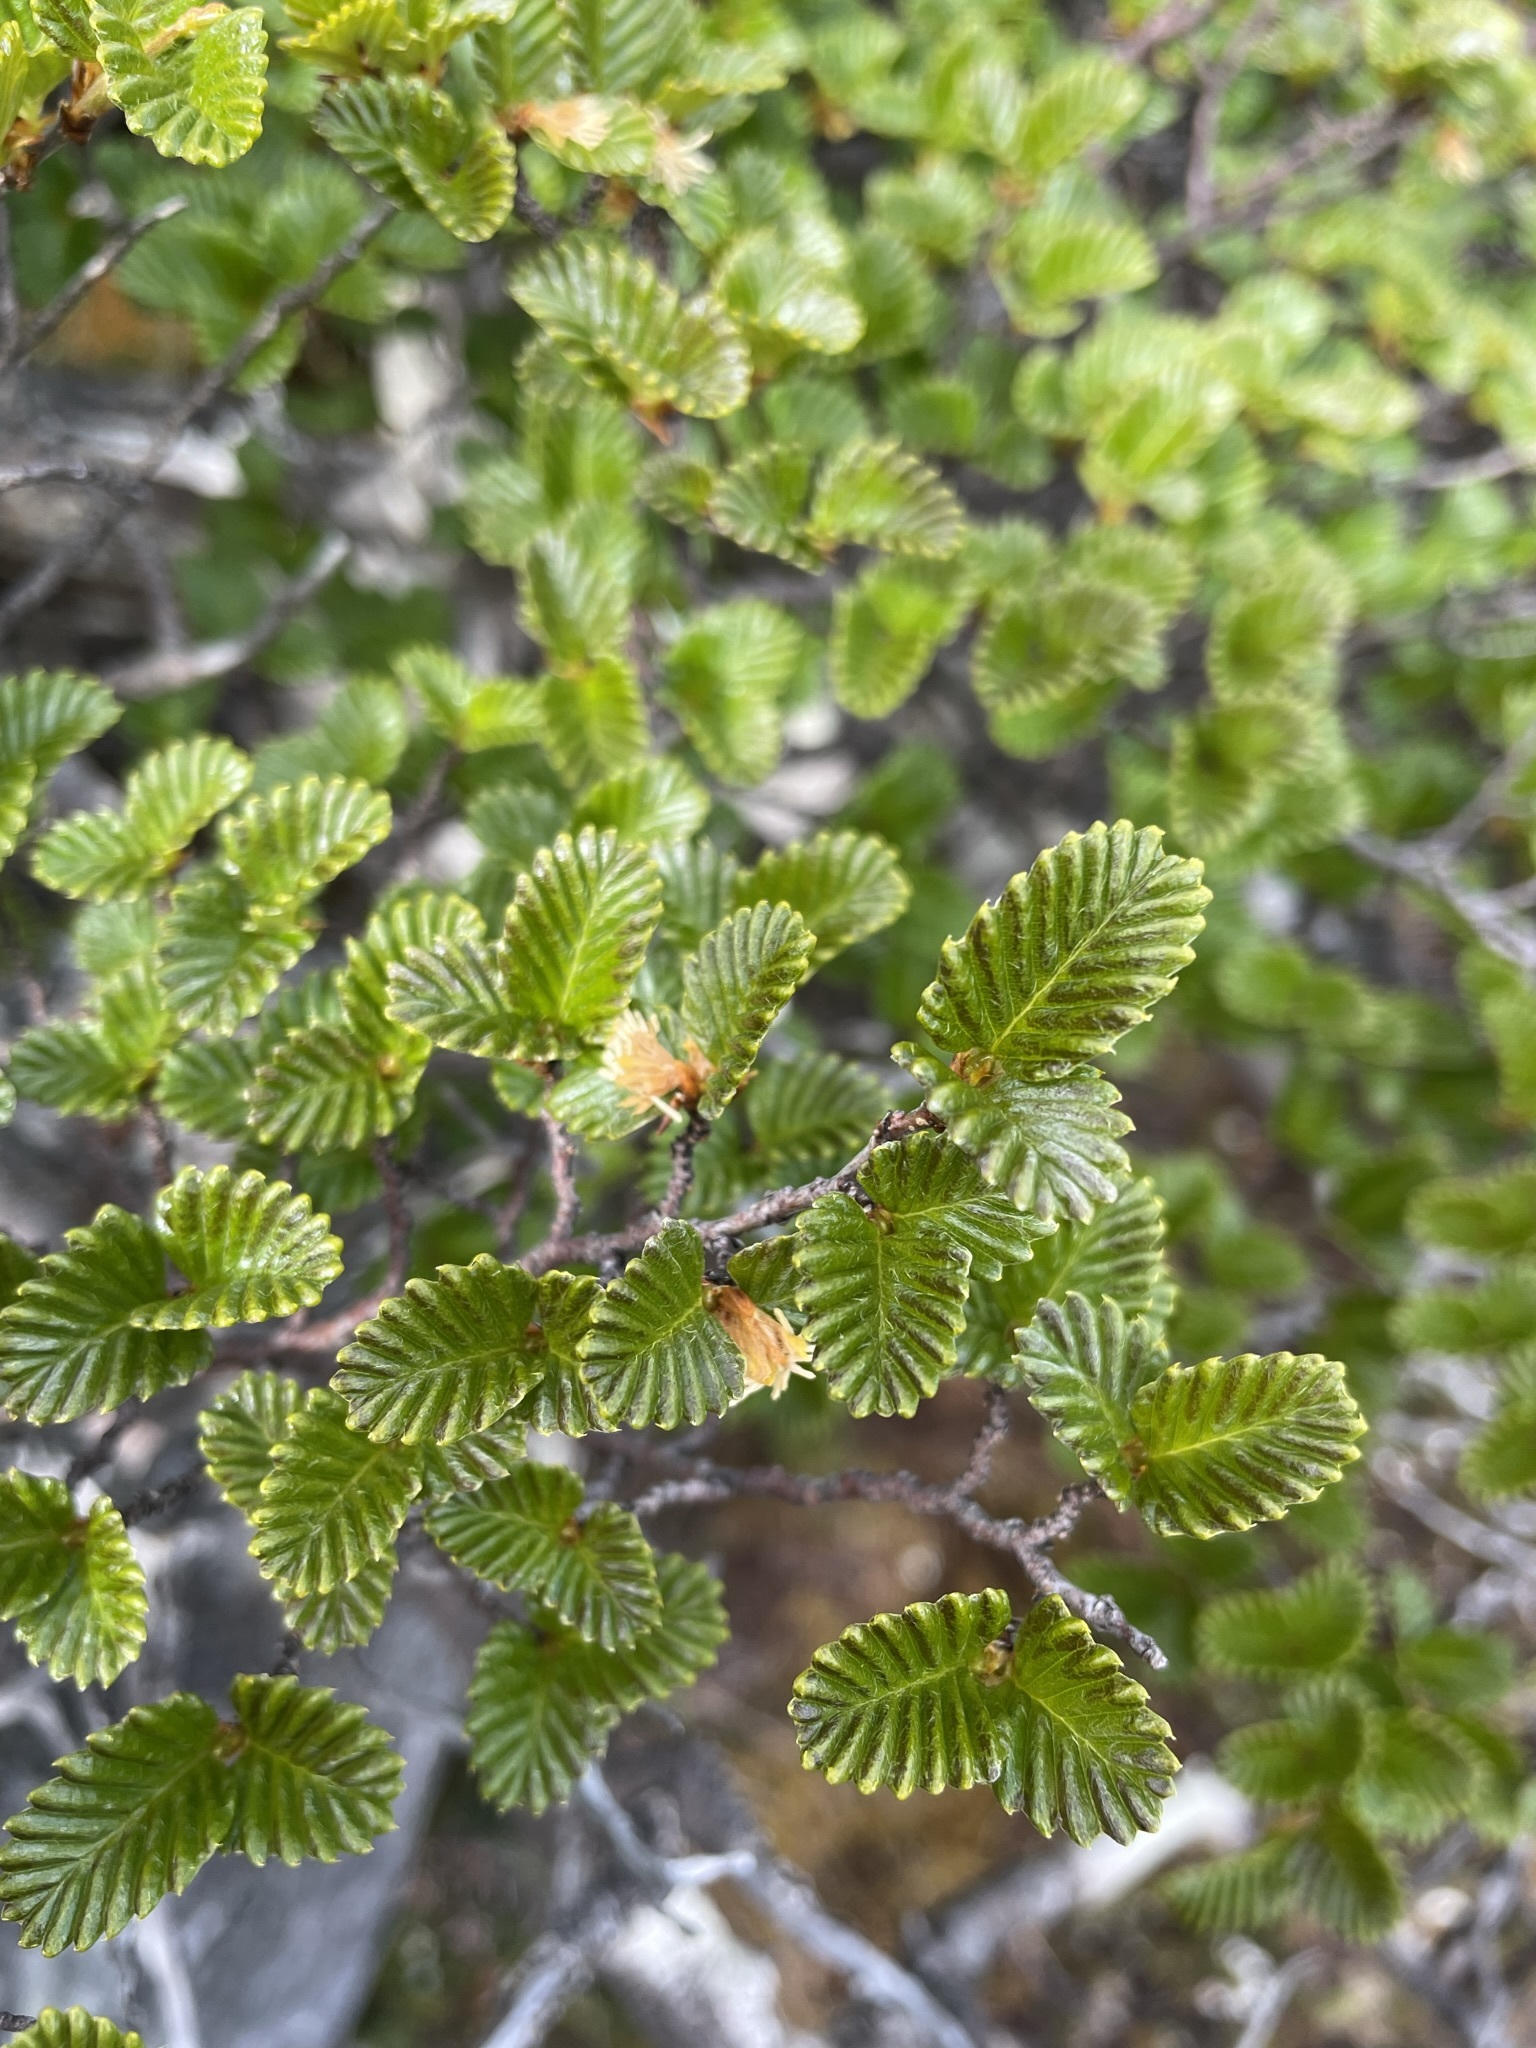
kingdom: Plantae
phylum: Tracheophyta
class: Magnoliopsida
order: Fagales
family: Nothofagaceae
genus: Nothofagus
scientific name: Nothofagus gunnii
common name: Tanglefoot
